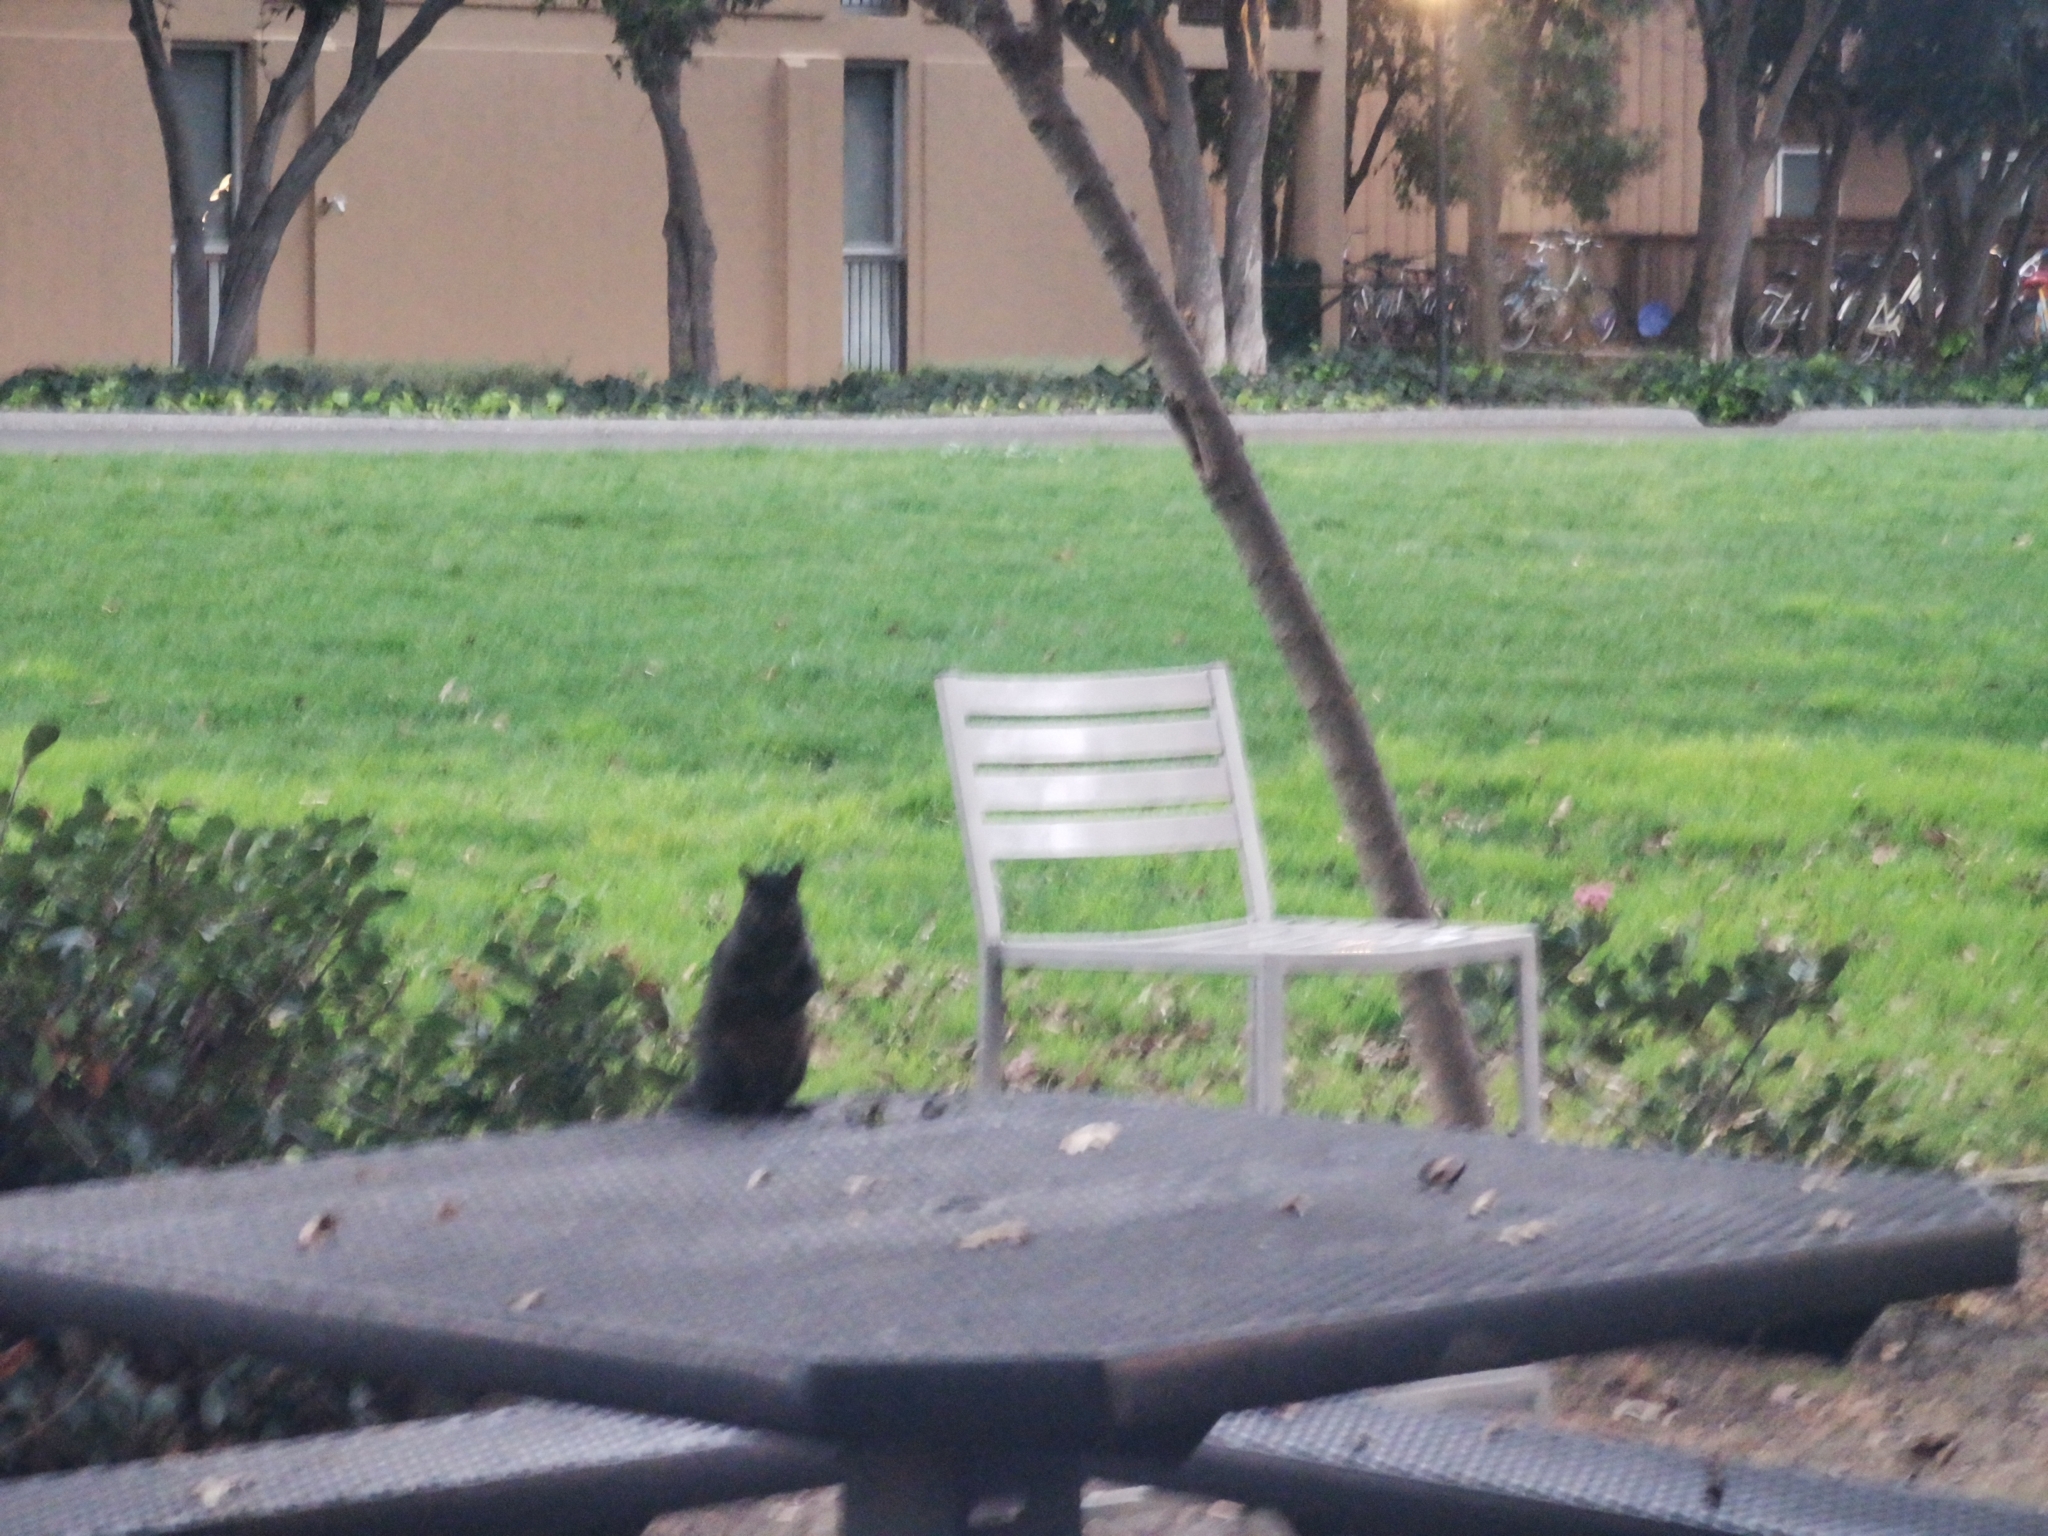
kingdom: Animalia
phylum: Chordata
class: Mammalia
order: Rodentia
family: Sciuridae
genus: Sciurus
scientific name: Sciurus carolinensis
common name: Eastern gray squirrel
